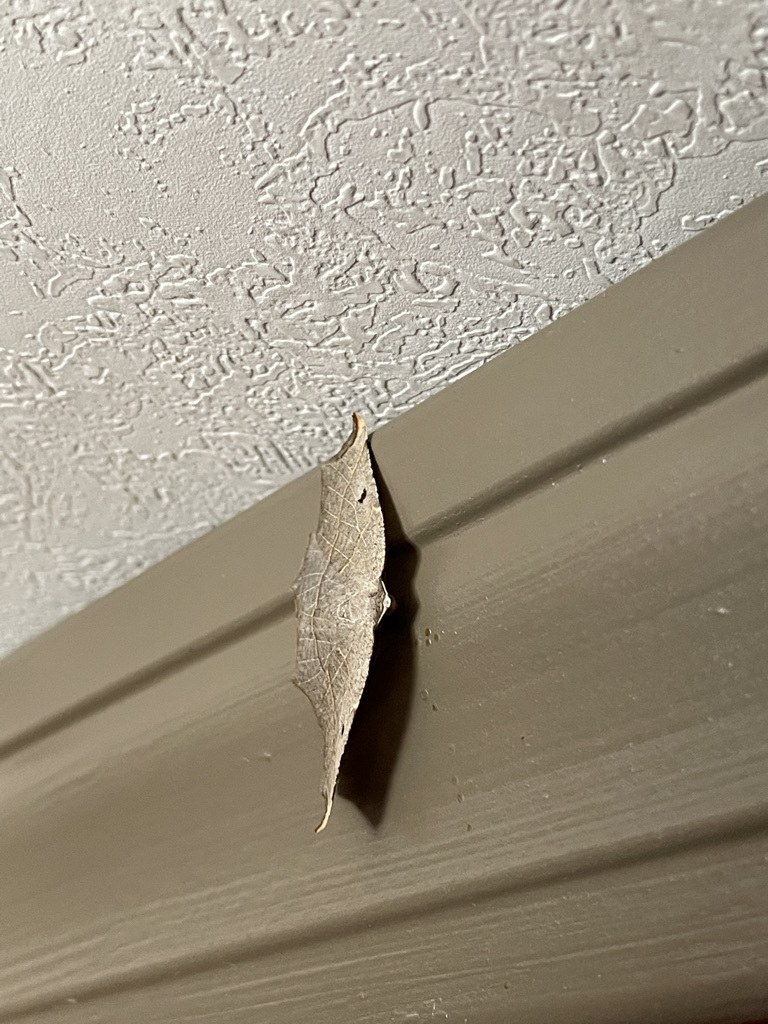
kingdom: Animalia
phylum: Arthropoda
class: Insecta
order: Lepidoptera
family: Geometridae
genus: Metanema
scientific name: Metanema inatomaria
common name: Pale metanema
